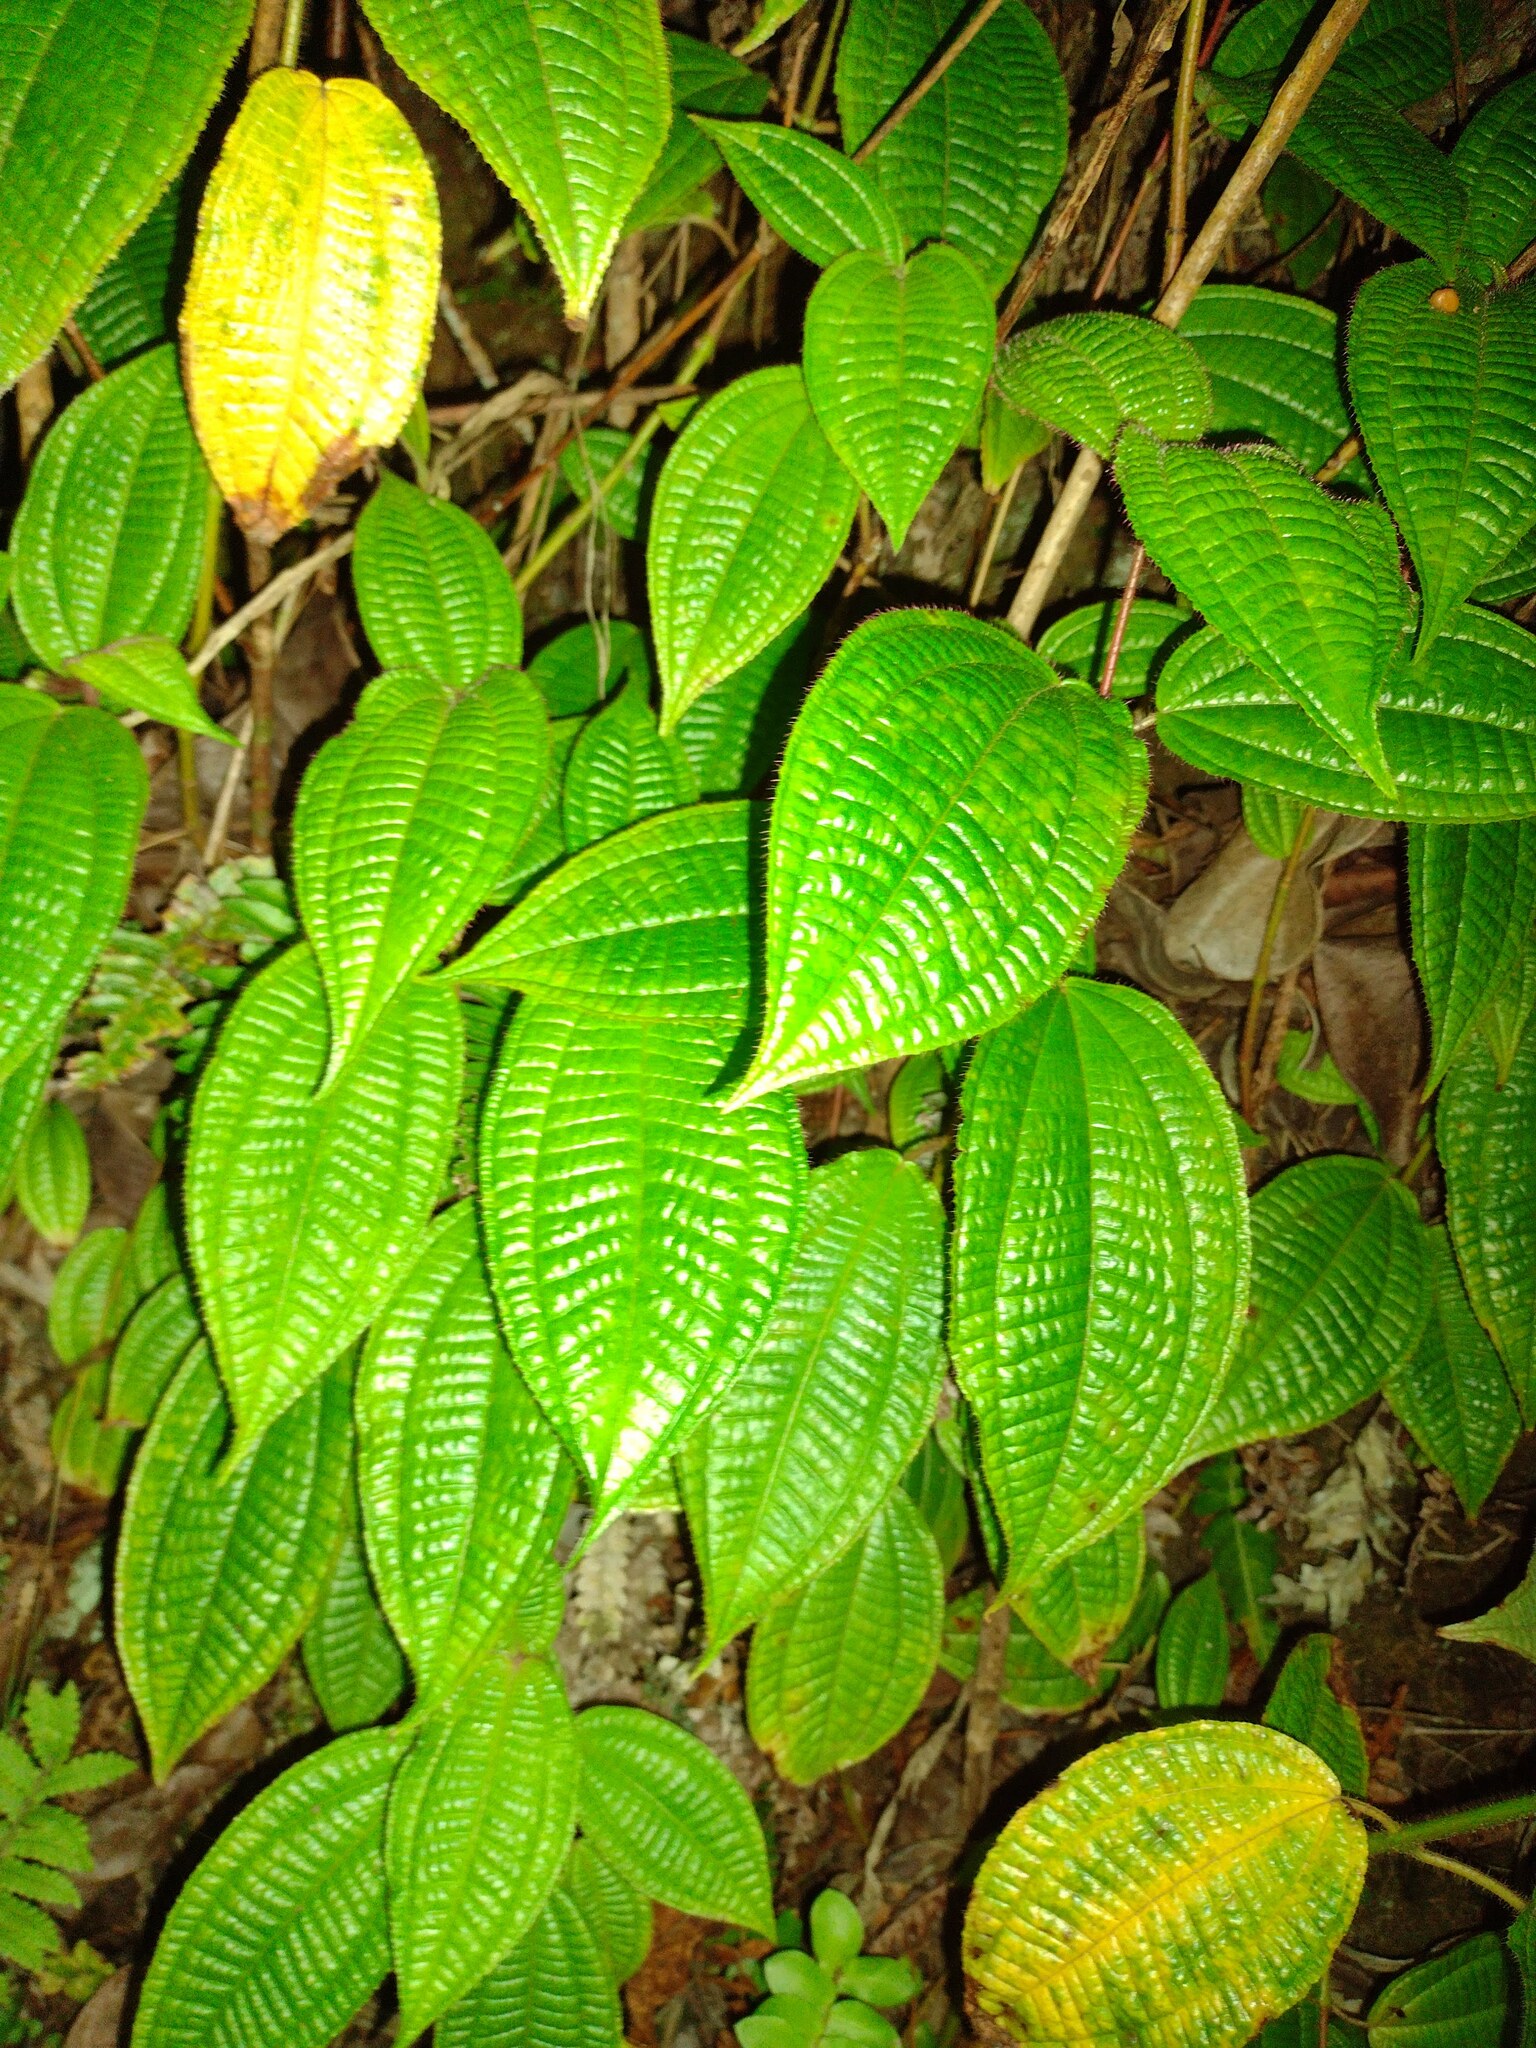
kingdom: Plantae
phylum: Tracheophyta
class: Magnoliopsida
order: Myrtales
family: Melastomataceae
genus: Miconia
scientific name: Miconia crenata
